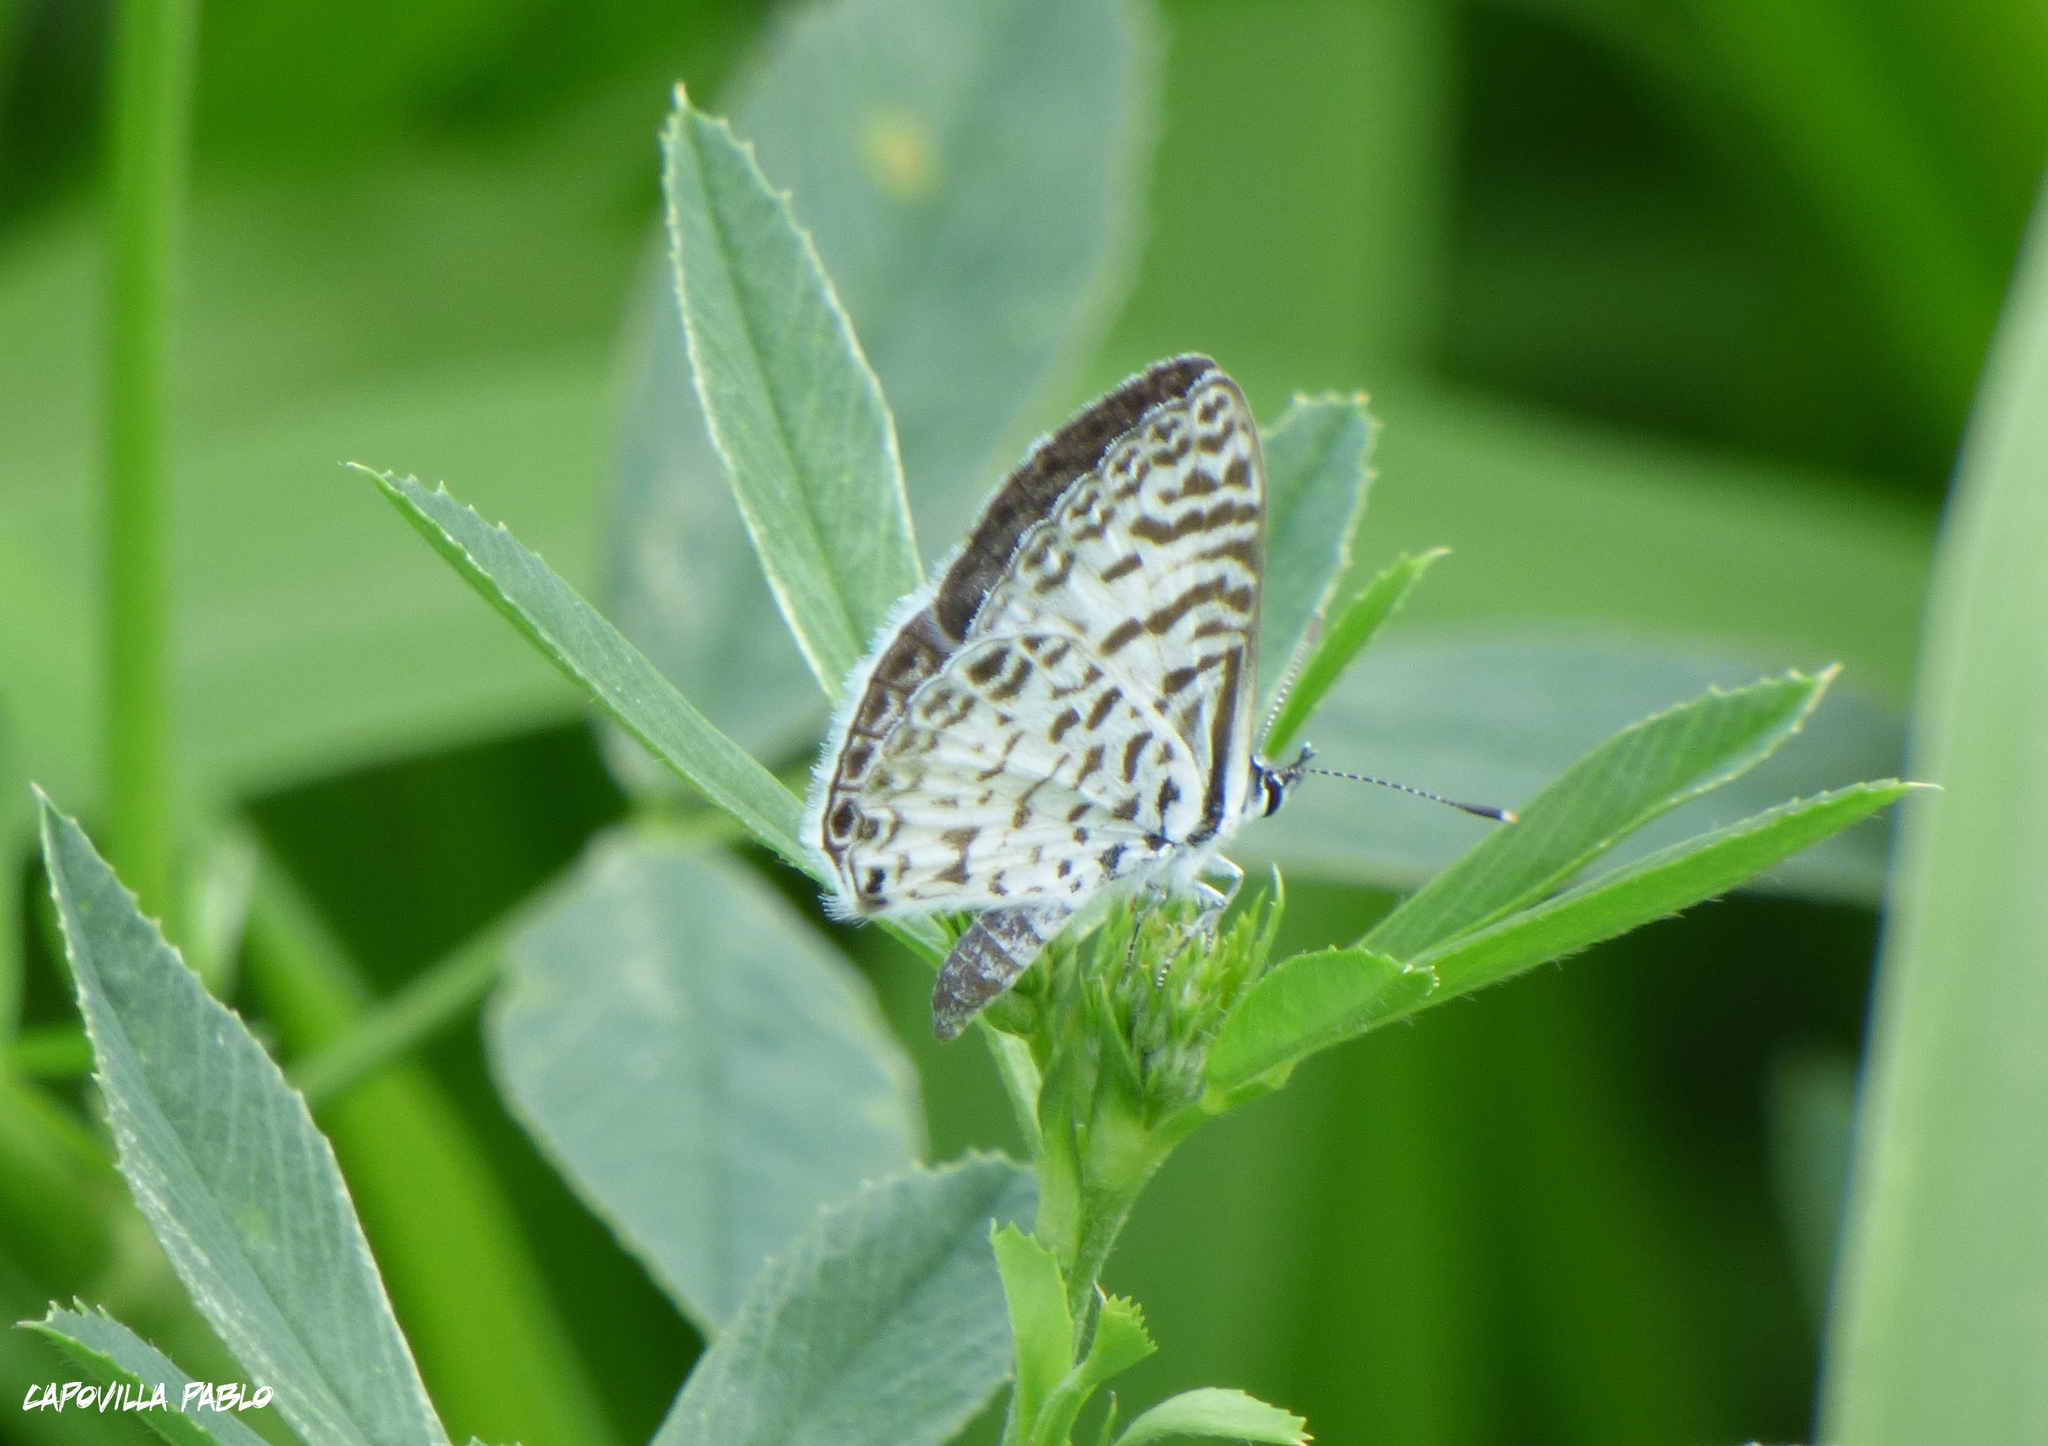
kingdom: Animalia
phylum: Arthropoda
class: Insecta
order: Lepidoptera
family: Lycaenidae
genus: Leptotes
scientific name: Leptotes cassius
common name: Cassius blue
